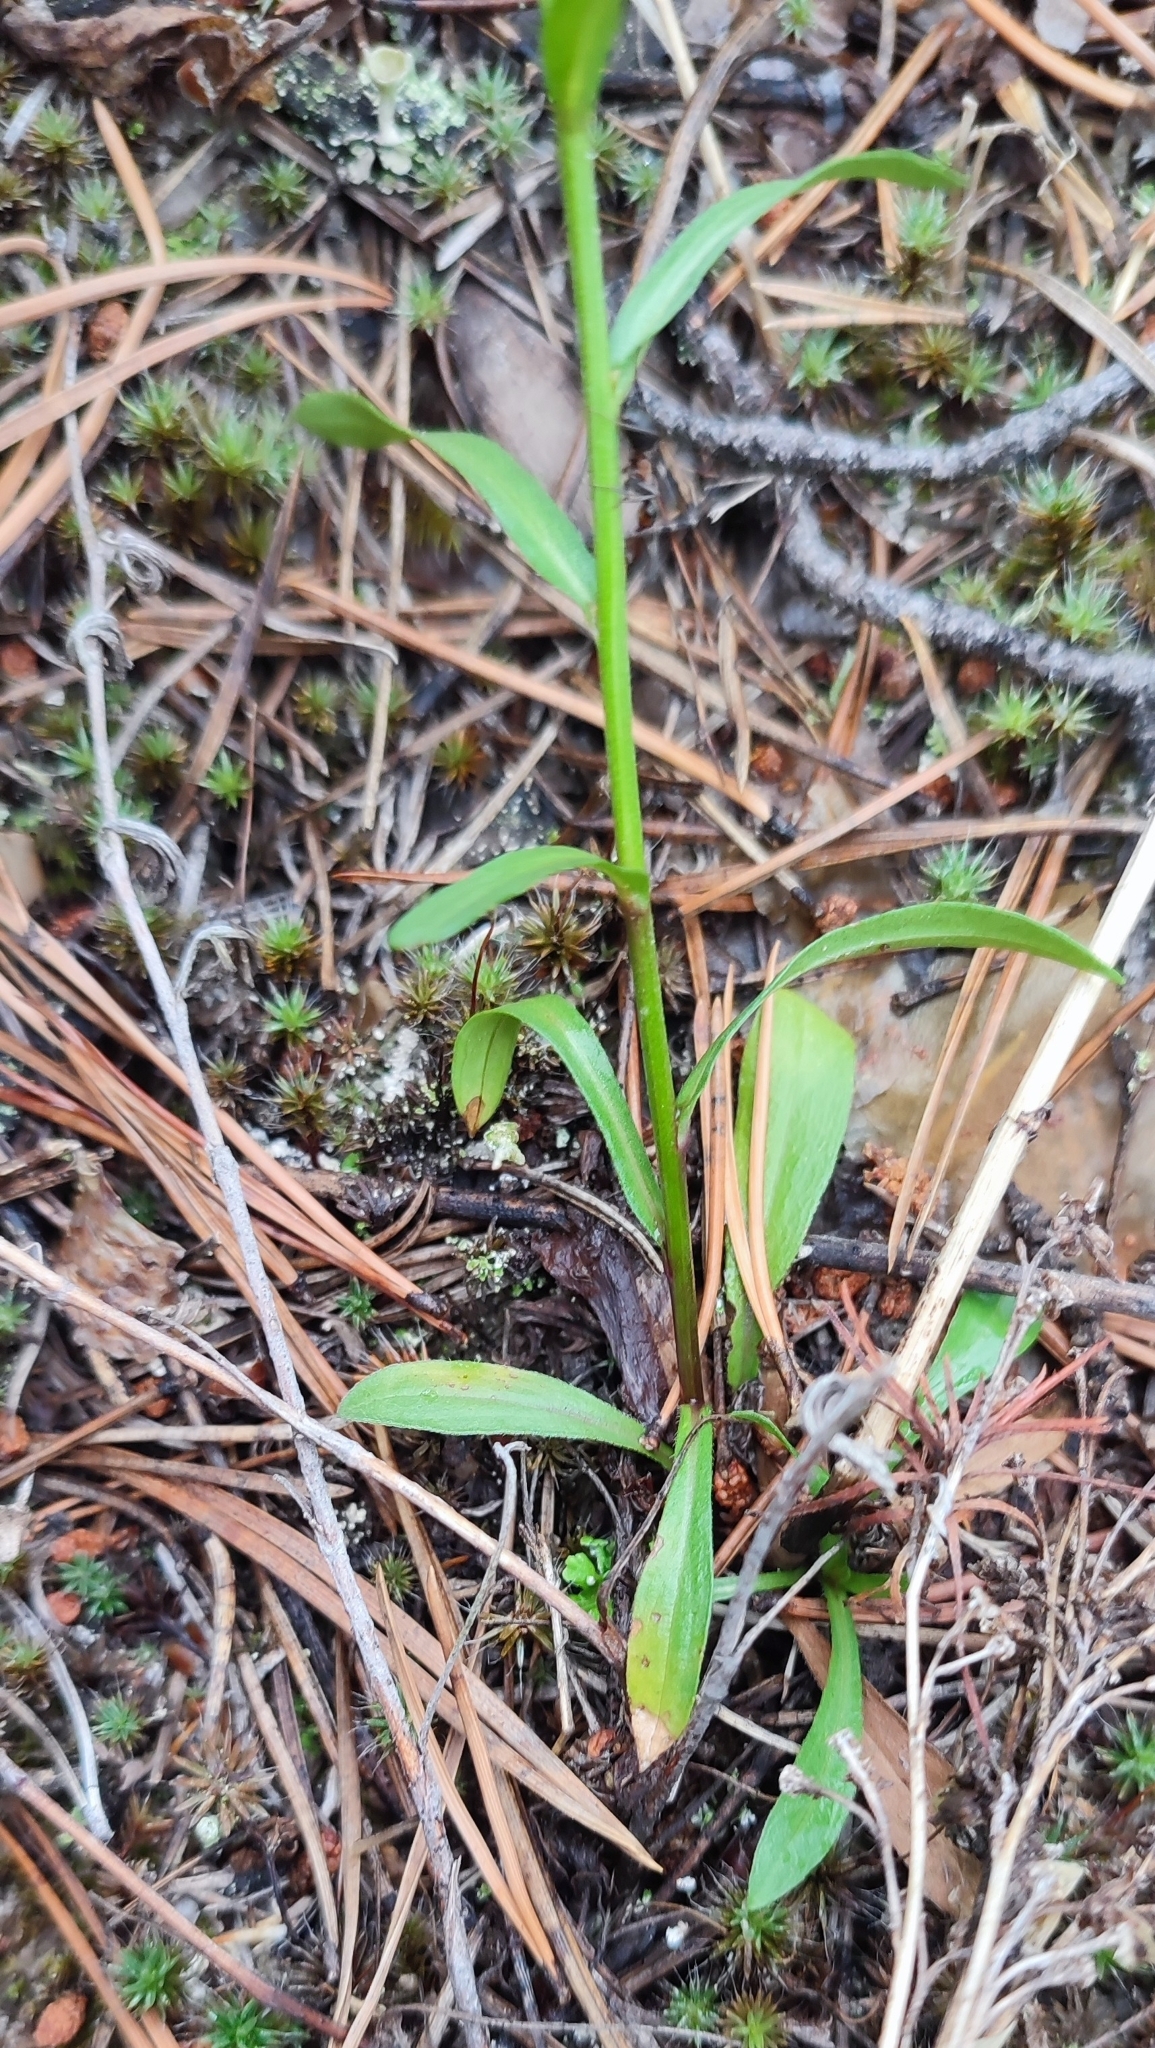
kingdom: Plantae
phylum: Tracheophyta
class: Magnoliopsida
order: Asterales
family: Asteraceae
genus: Erigeron
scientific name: Erigeron acris
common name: Blue fleabane
